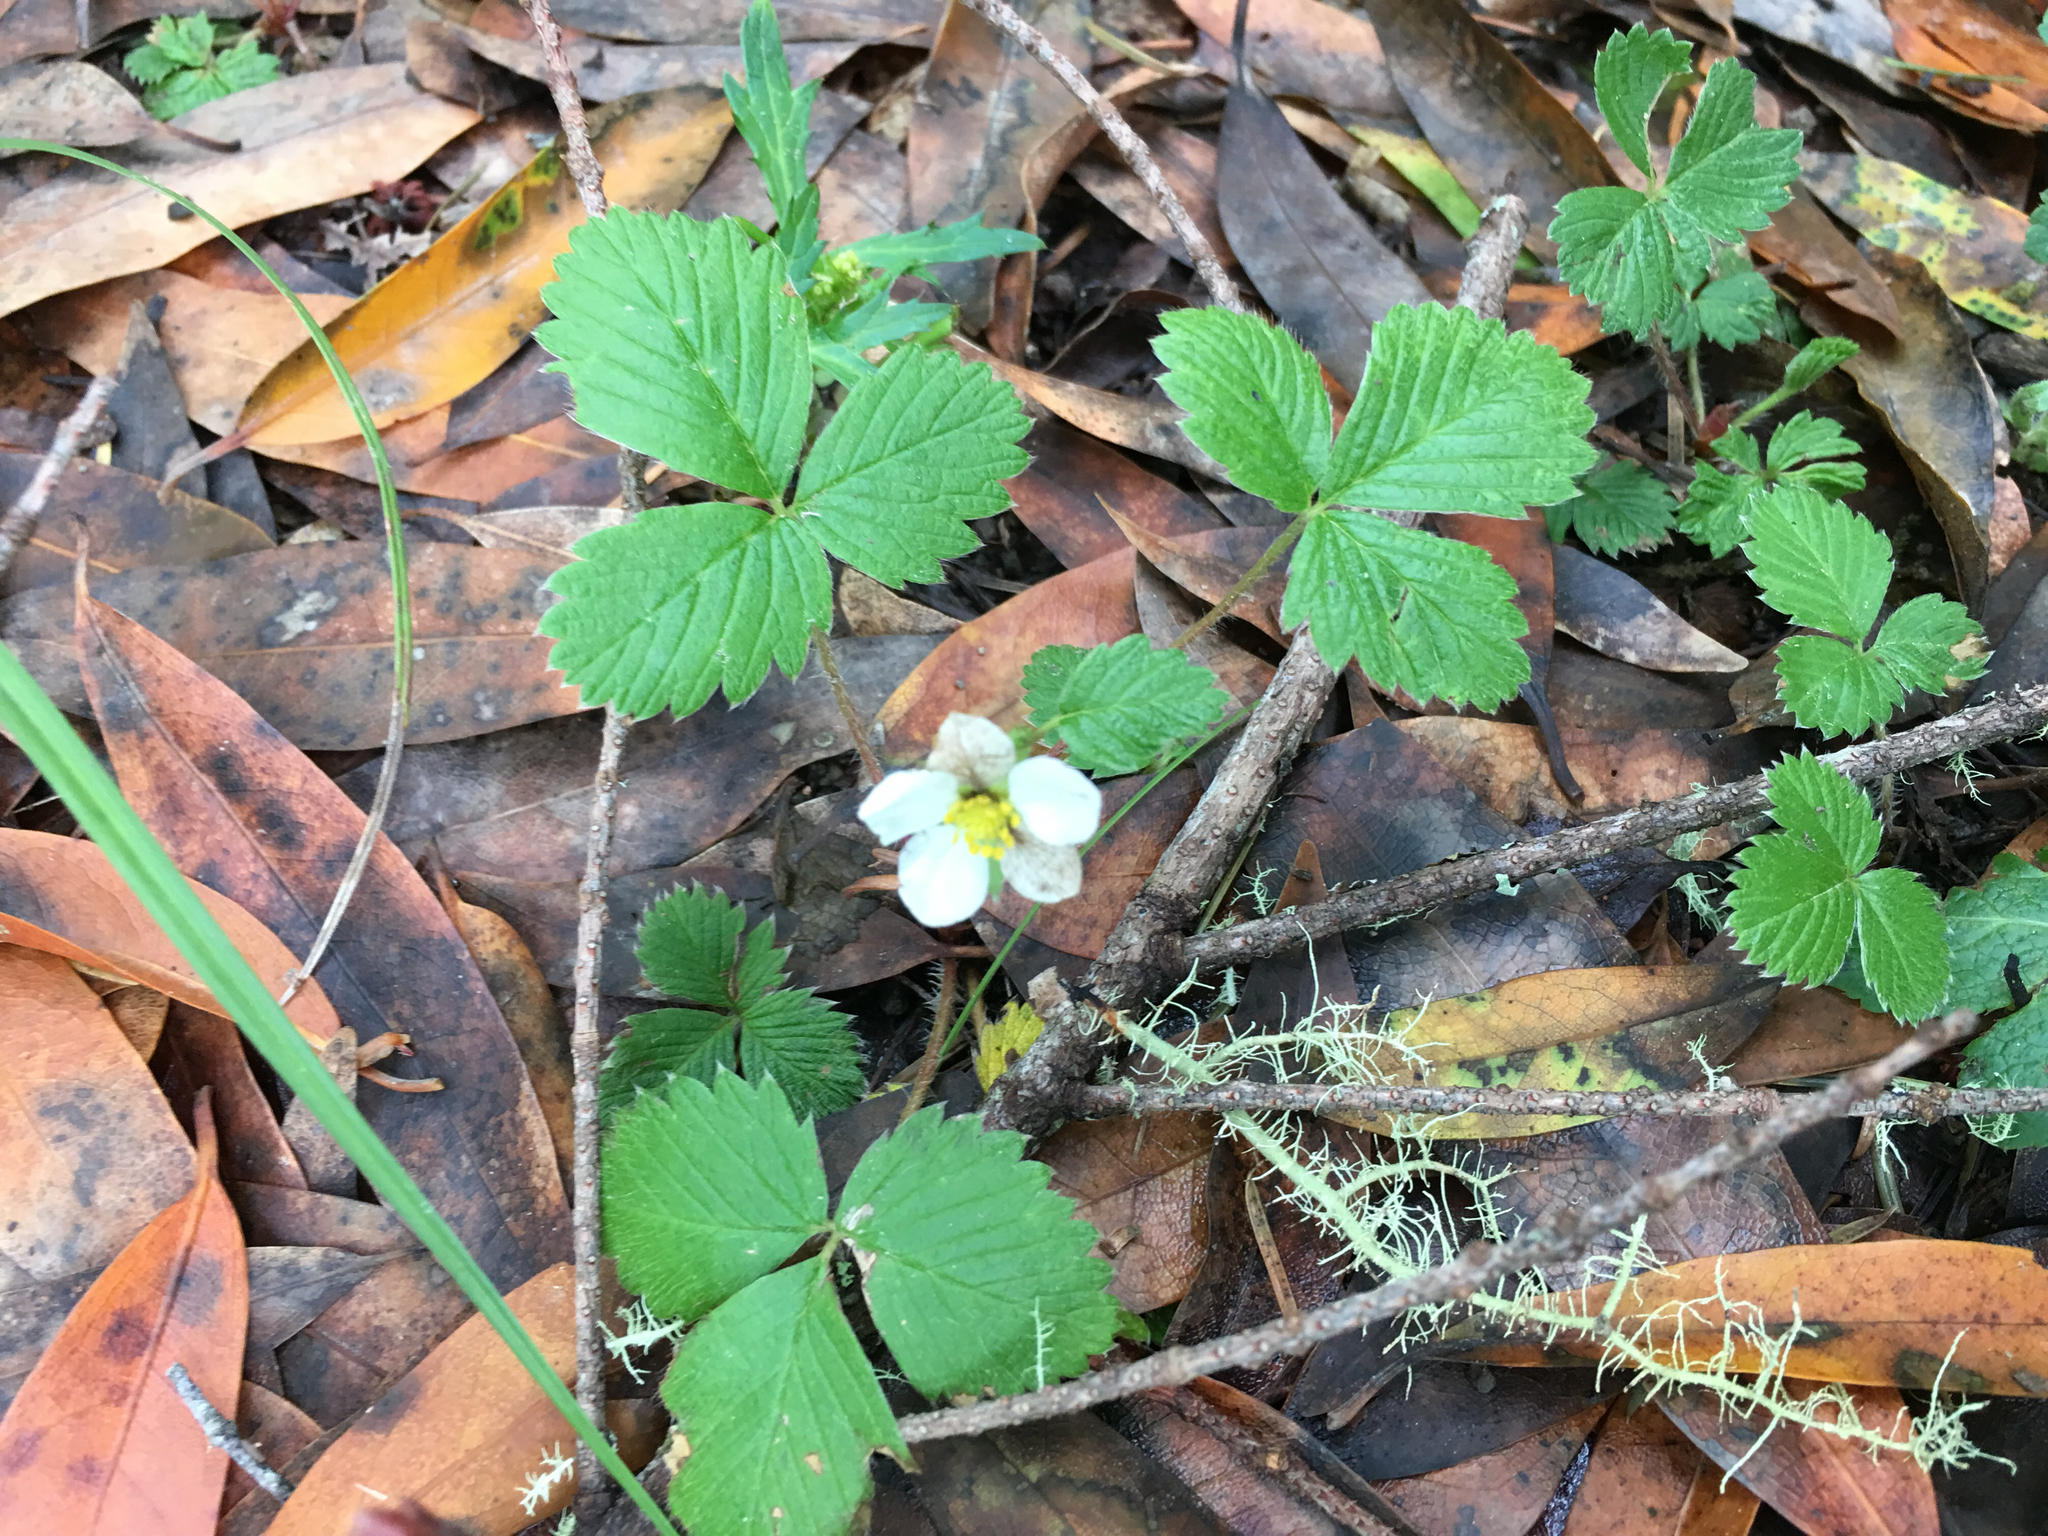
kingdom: Plantae
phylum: Tracheophyta
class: Magnoliopsida
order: Rosales
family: Rosaceae
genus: Fragaria
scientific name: Fragaria vesca
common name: Wild strawberry
